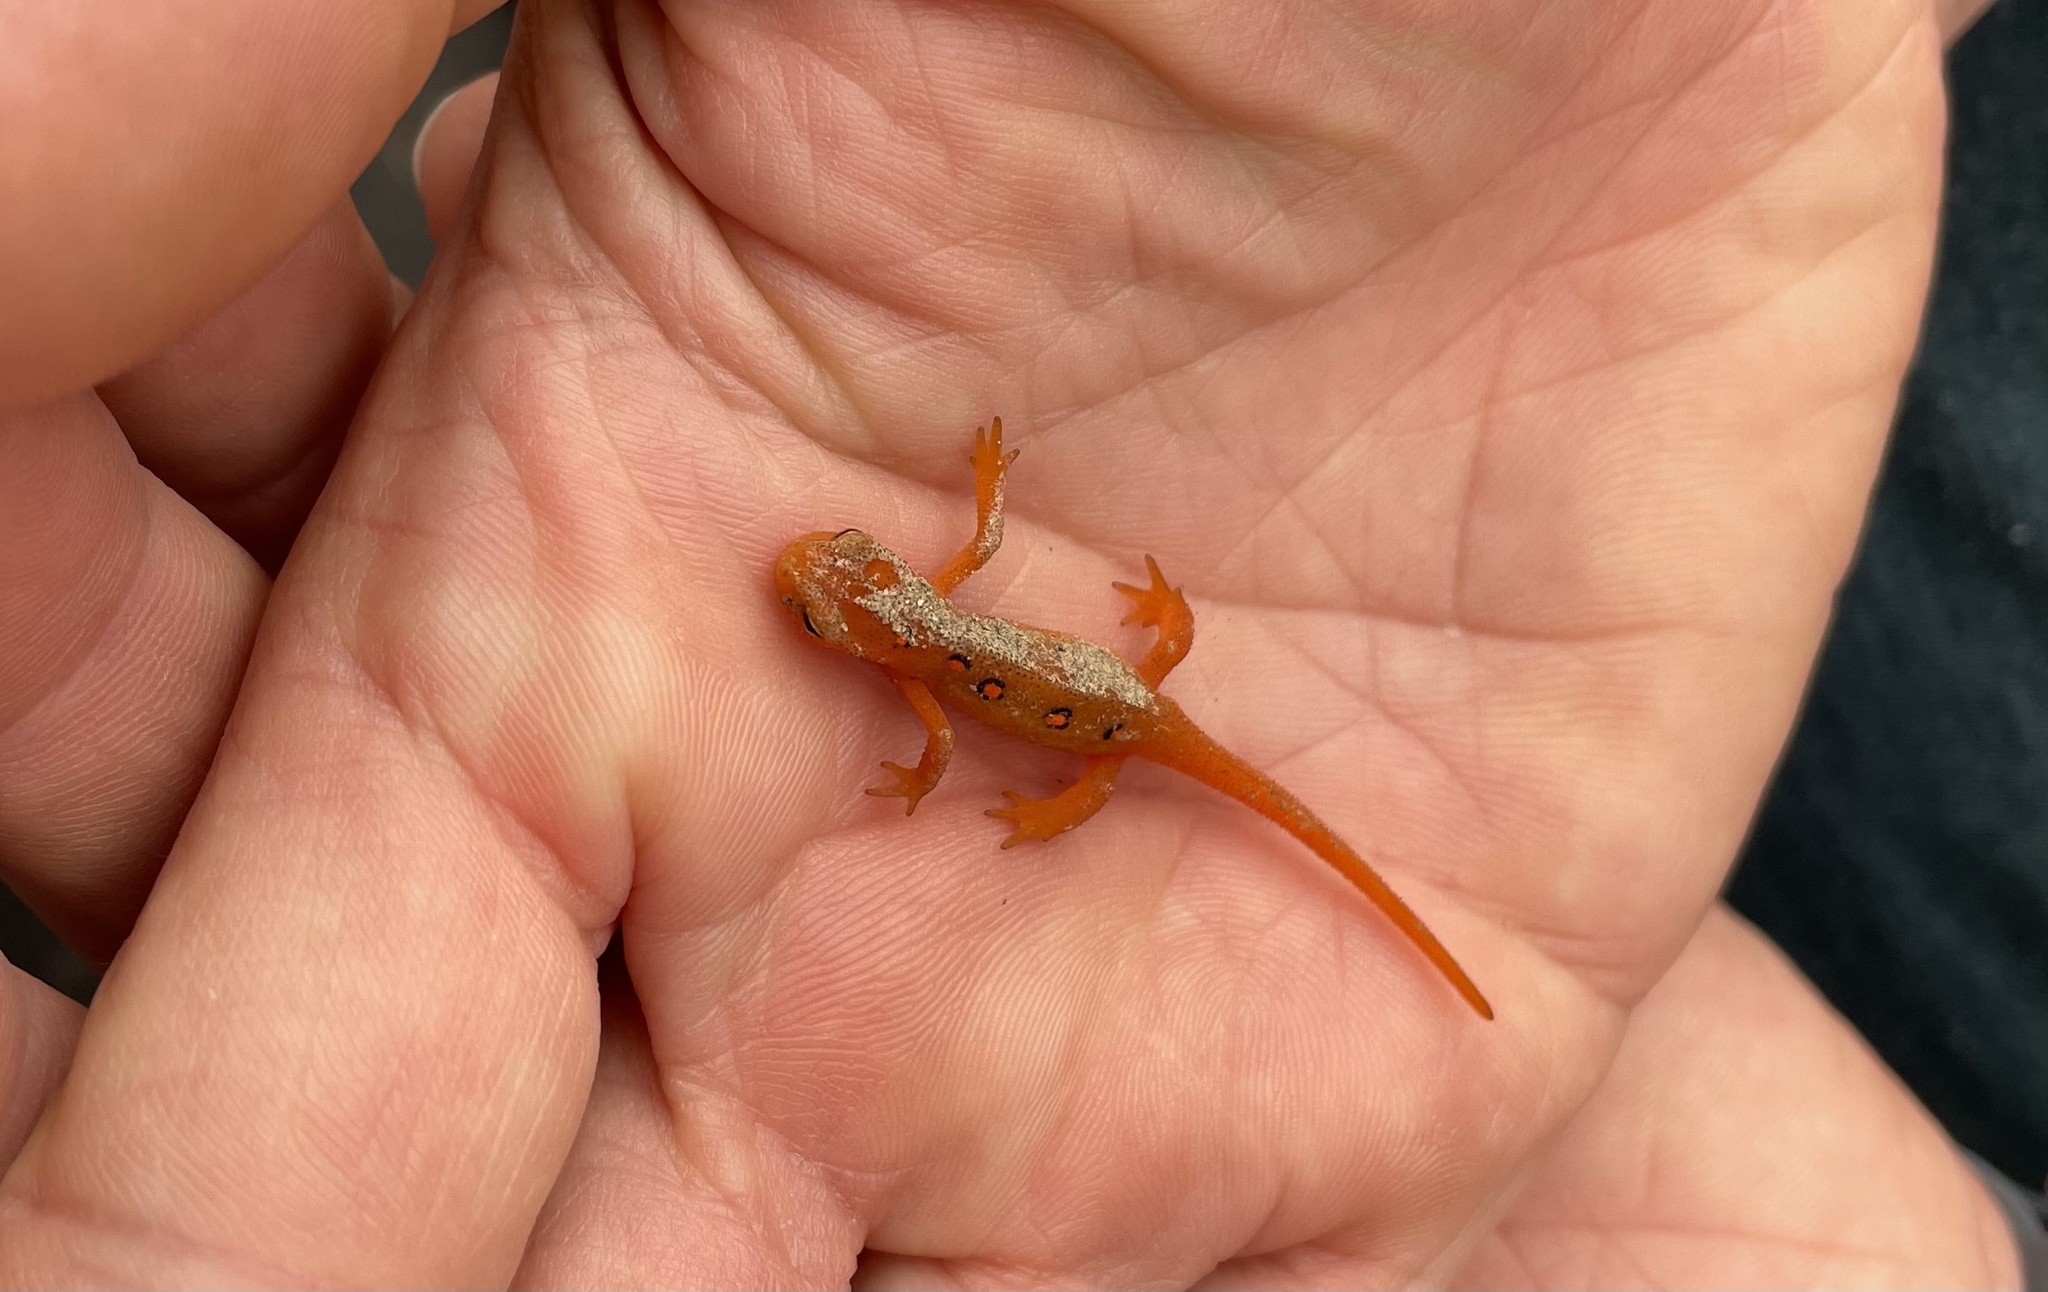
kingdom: Animalia
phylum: Chordata
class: Amphibia
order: Caudata
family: Salamandridae
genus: Notophthalmus
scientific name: Notophthalmus viridescens
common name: Eastern newt
